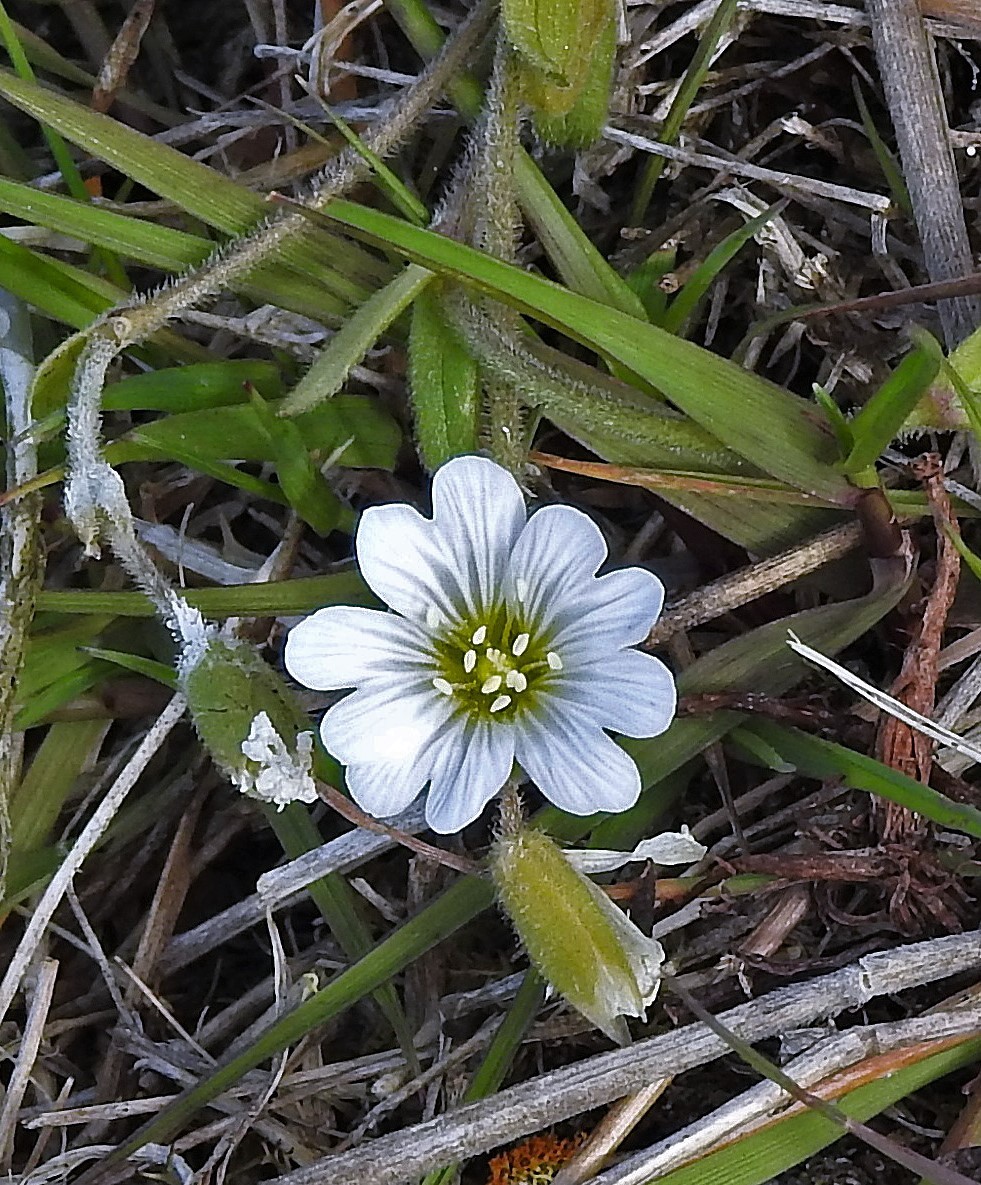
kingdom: Plantae
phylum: Tracheophyta
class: Magnoliopsida
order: Caryophyllales
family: Caryophyllaceae
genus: Cerastium
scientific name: Cerastium arvense
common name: Field mouse-ear
